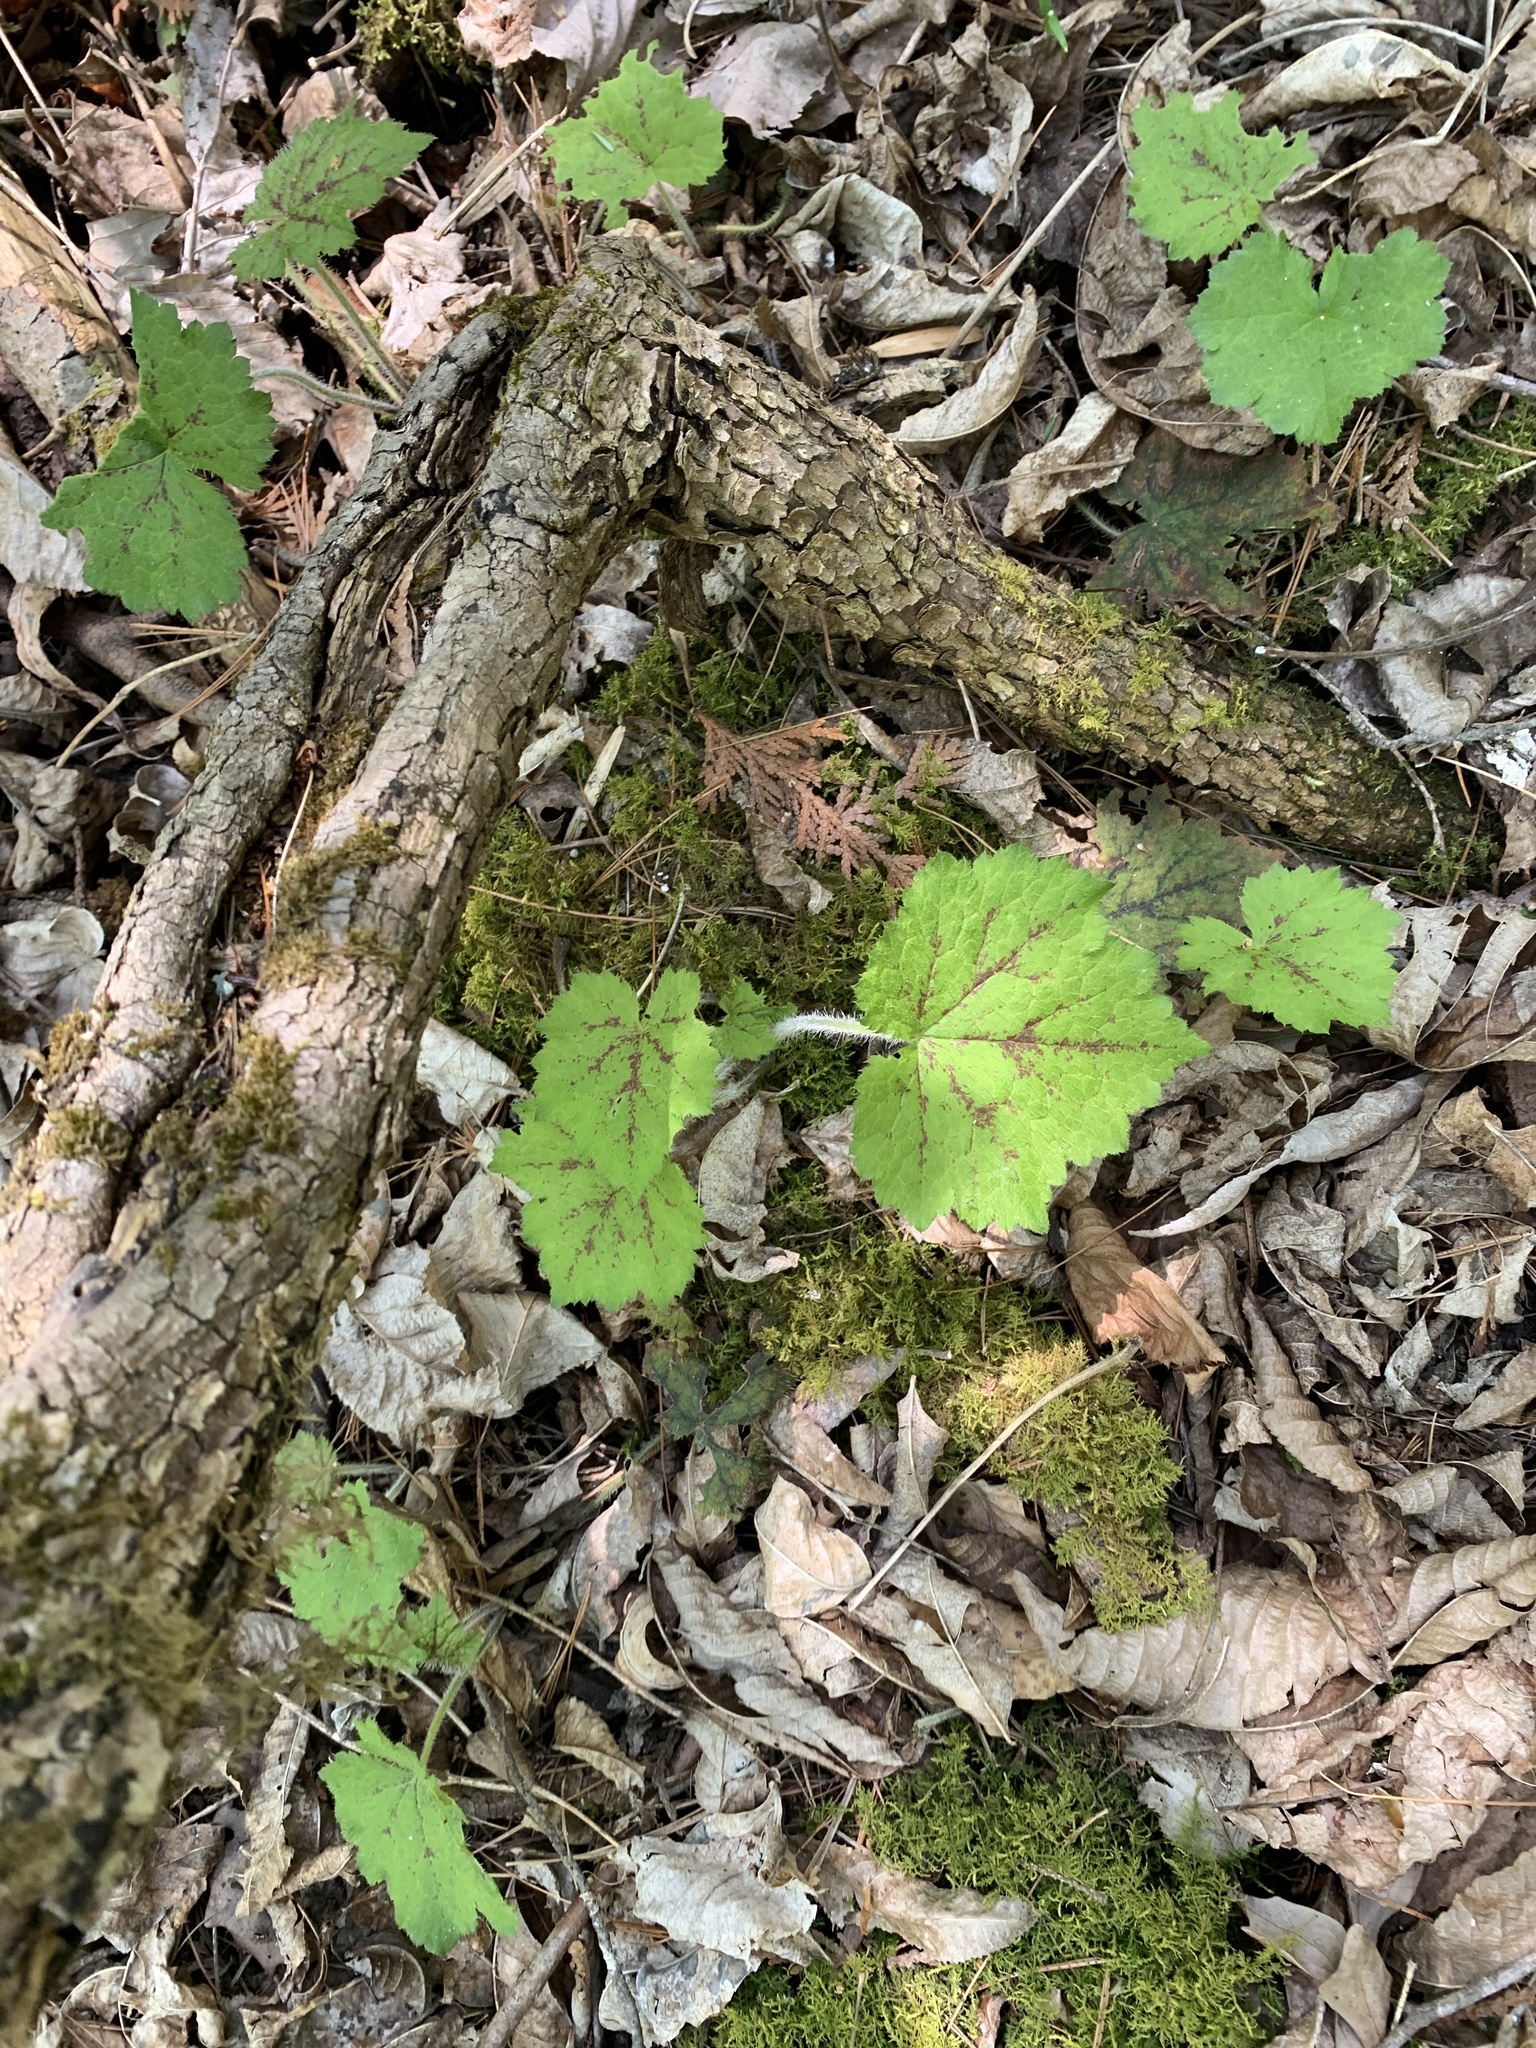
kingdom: Plantae
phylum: Tracheophyta
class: Magnoliopsida
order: Saxifragales
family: Saxifragaceae
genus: Tiarella
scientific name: Tiarella stolonifera
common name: Stoloniferous foamflower
